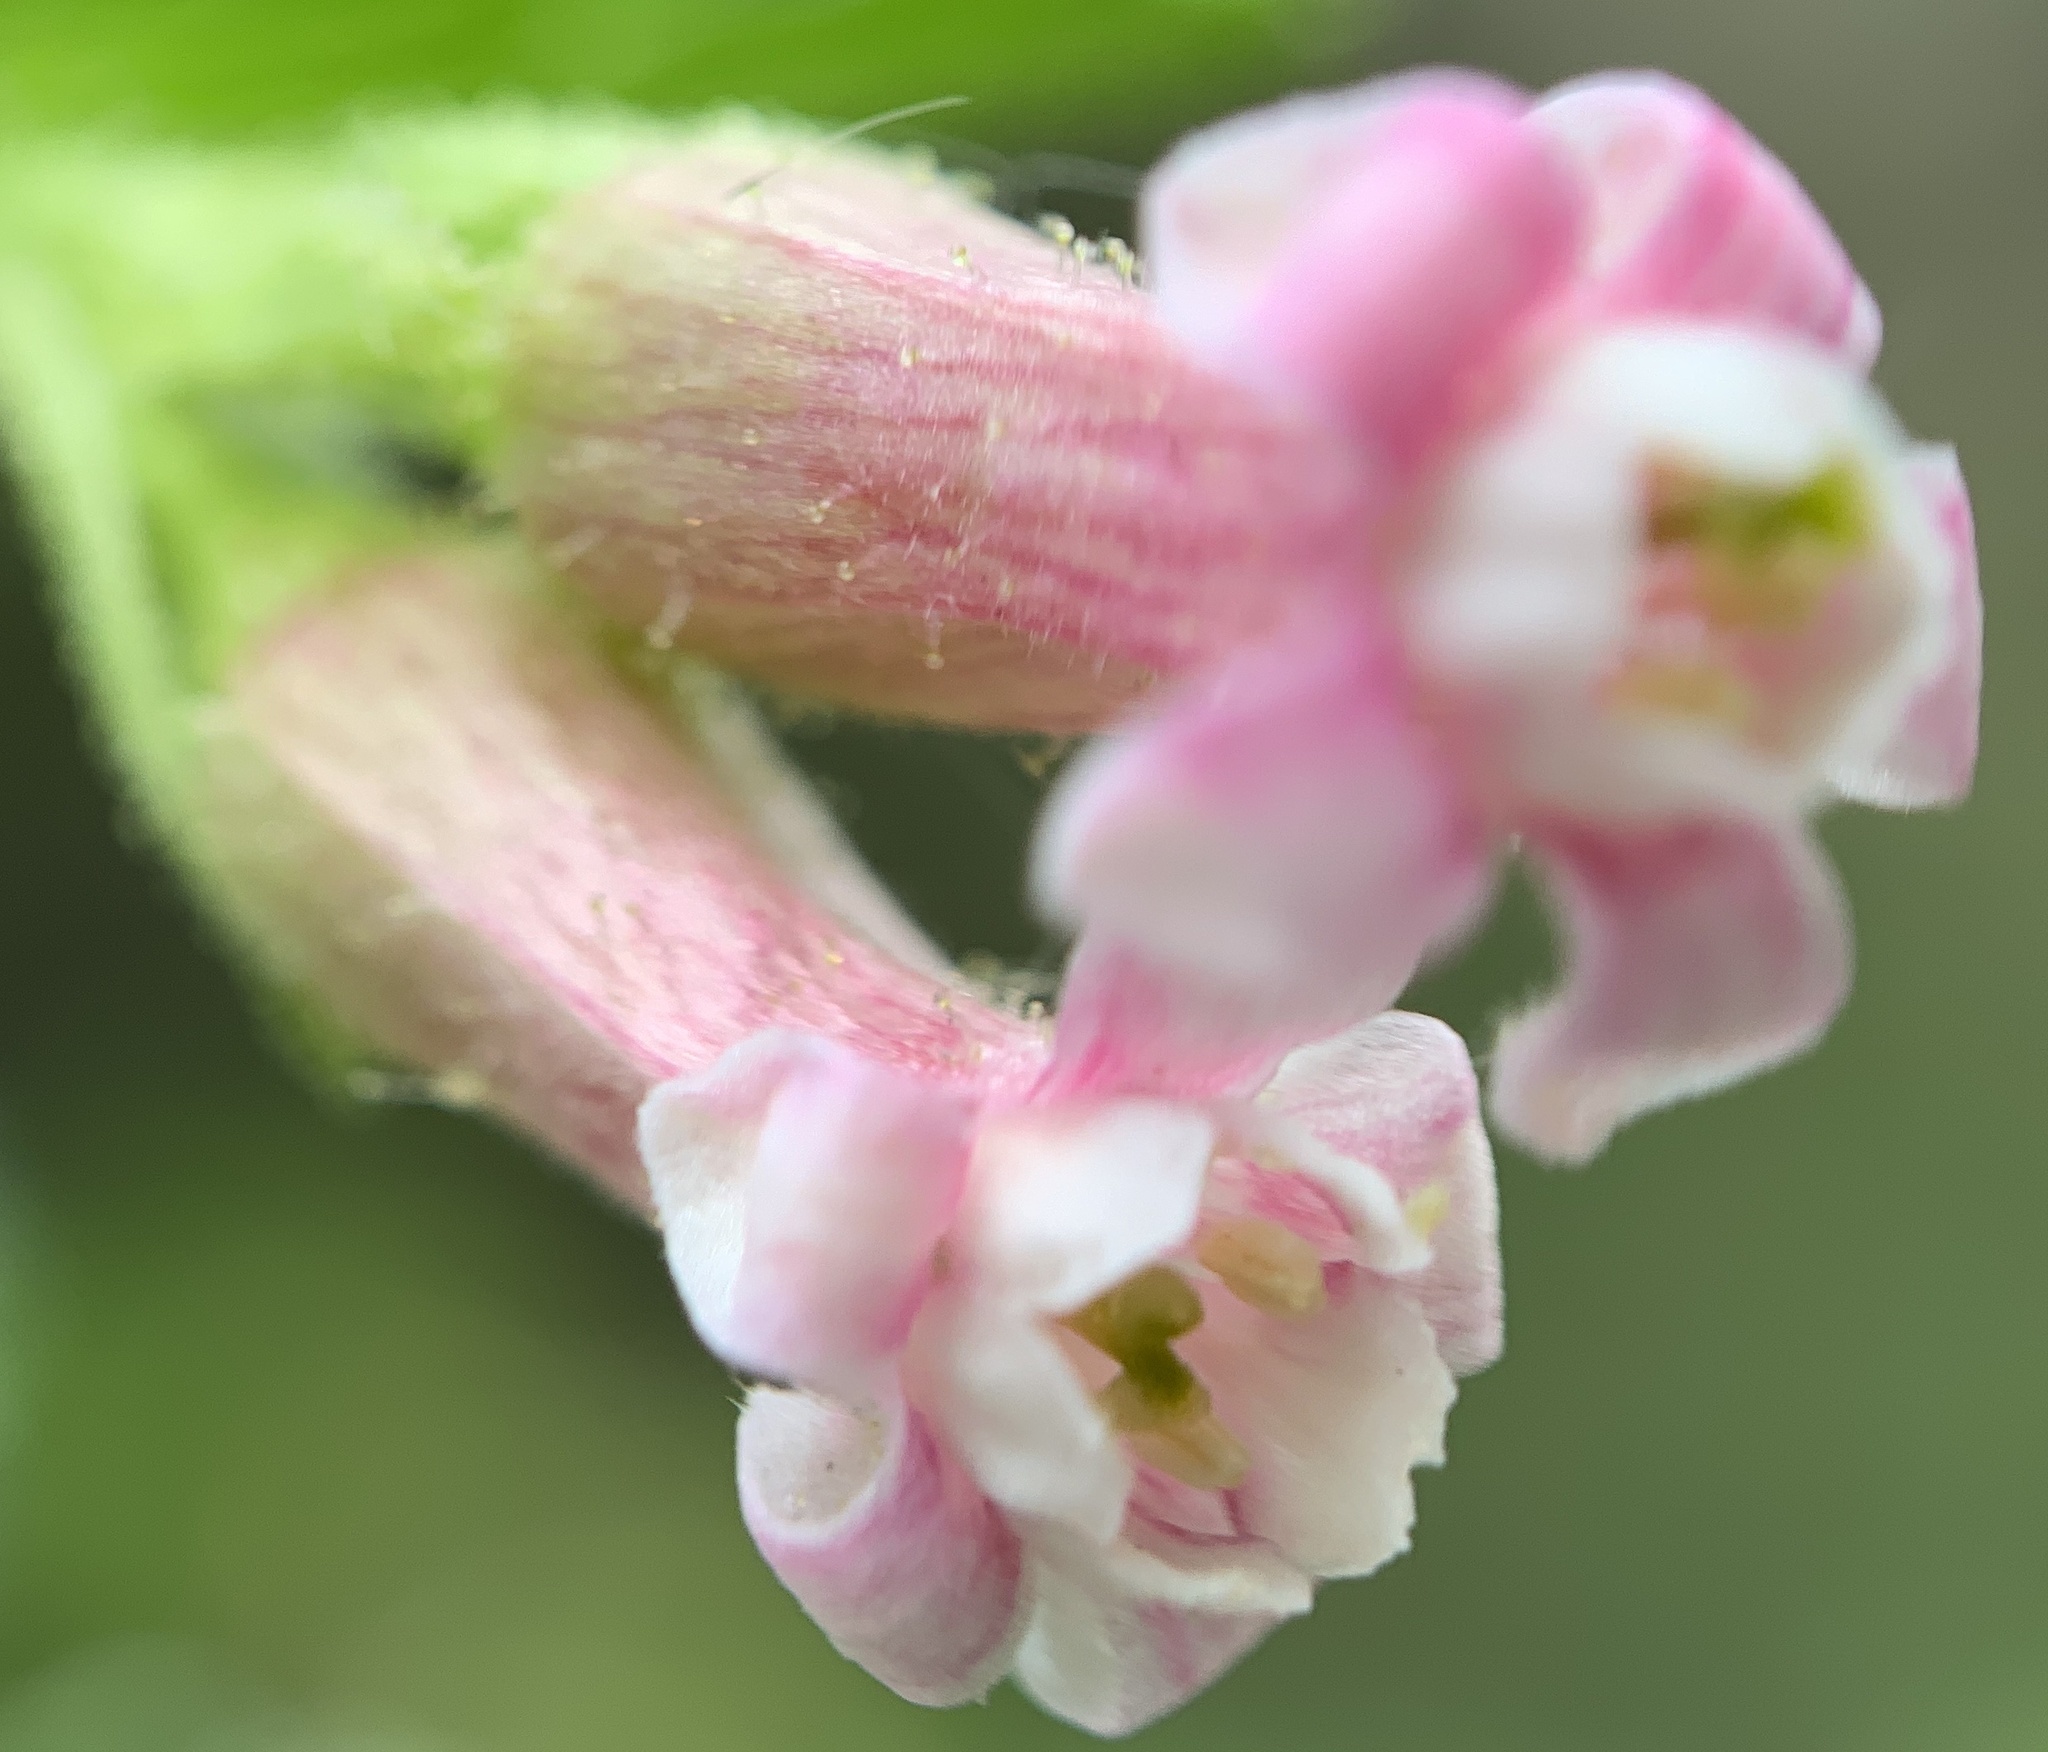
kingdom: Plantae
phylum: Tracheophyta
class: Magnoliopsida
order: Saxifragales
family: Grossulariaceae
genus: Ribes
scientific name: Ribes cereum
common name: Wax currant
